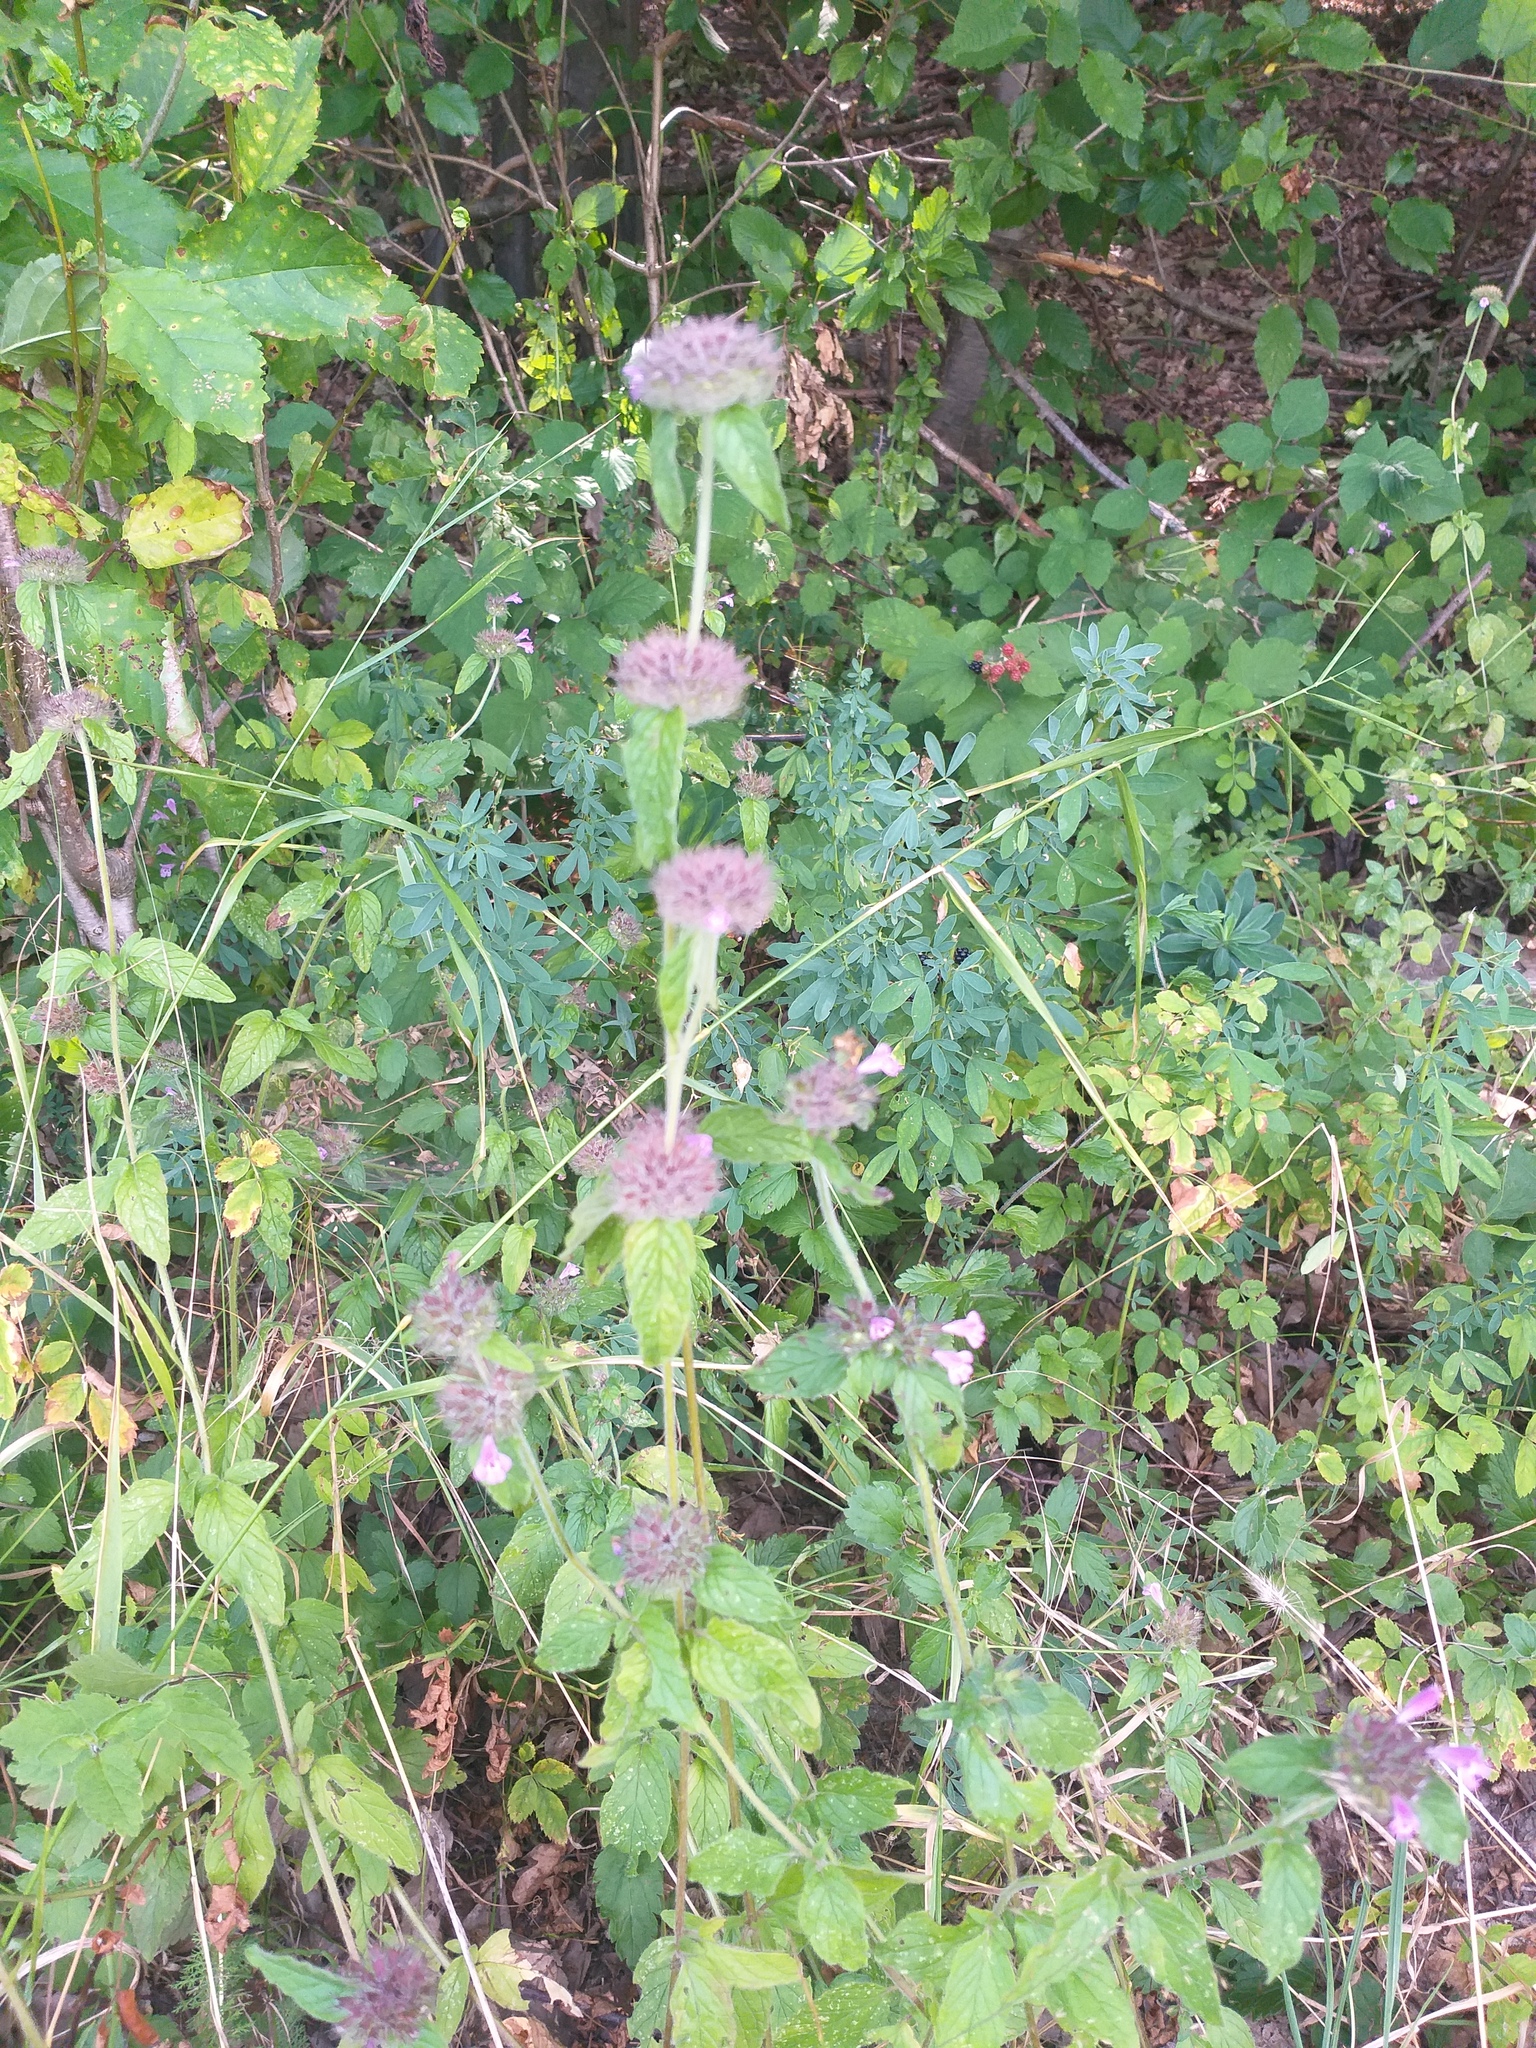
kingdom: Plantae
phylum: Tracheophyta
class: Magnoliopsida
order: Lamiales
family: Lamiaceae
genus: Clinopodium
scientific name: Clinopodium vulgare
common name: Wild basil
